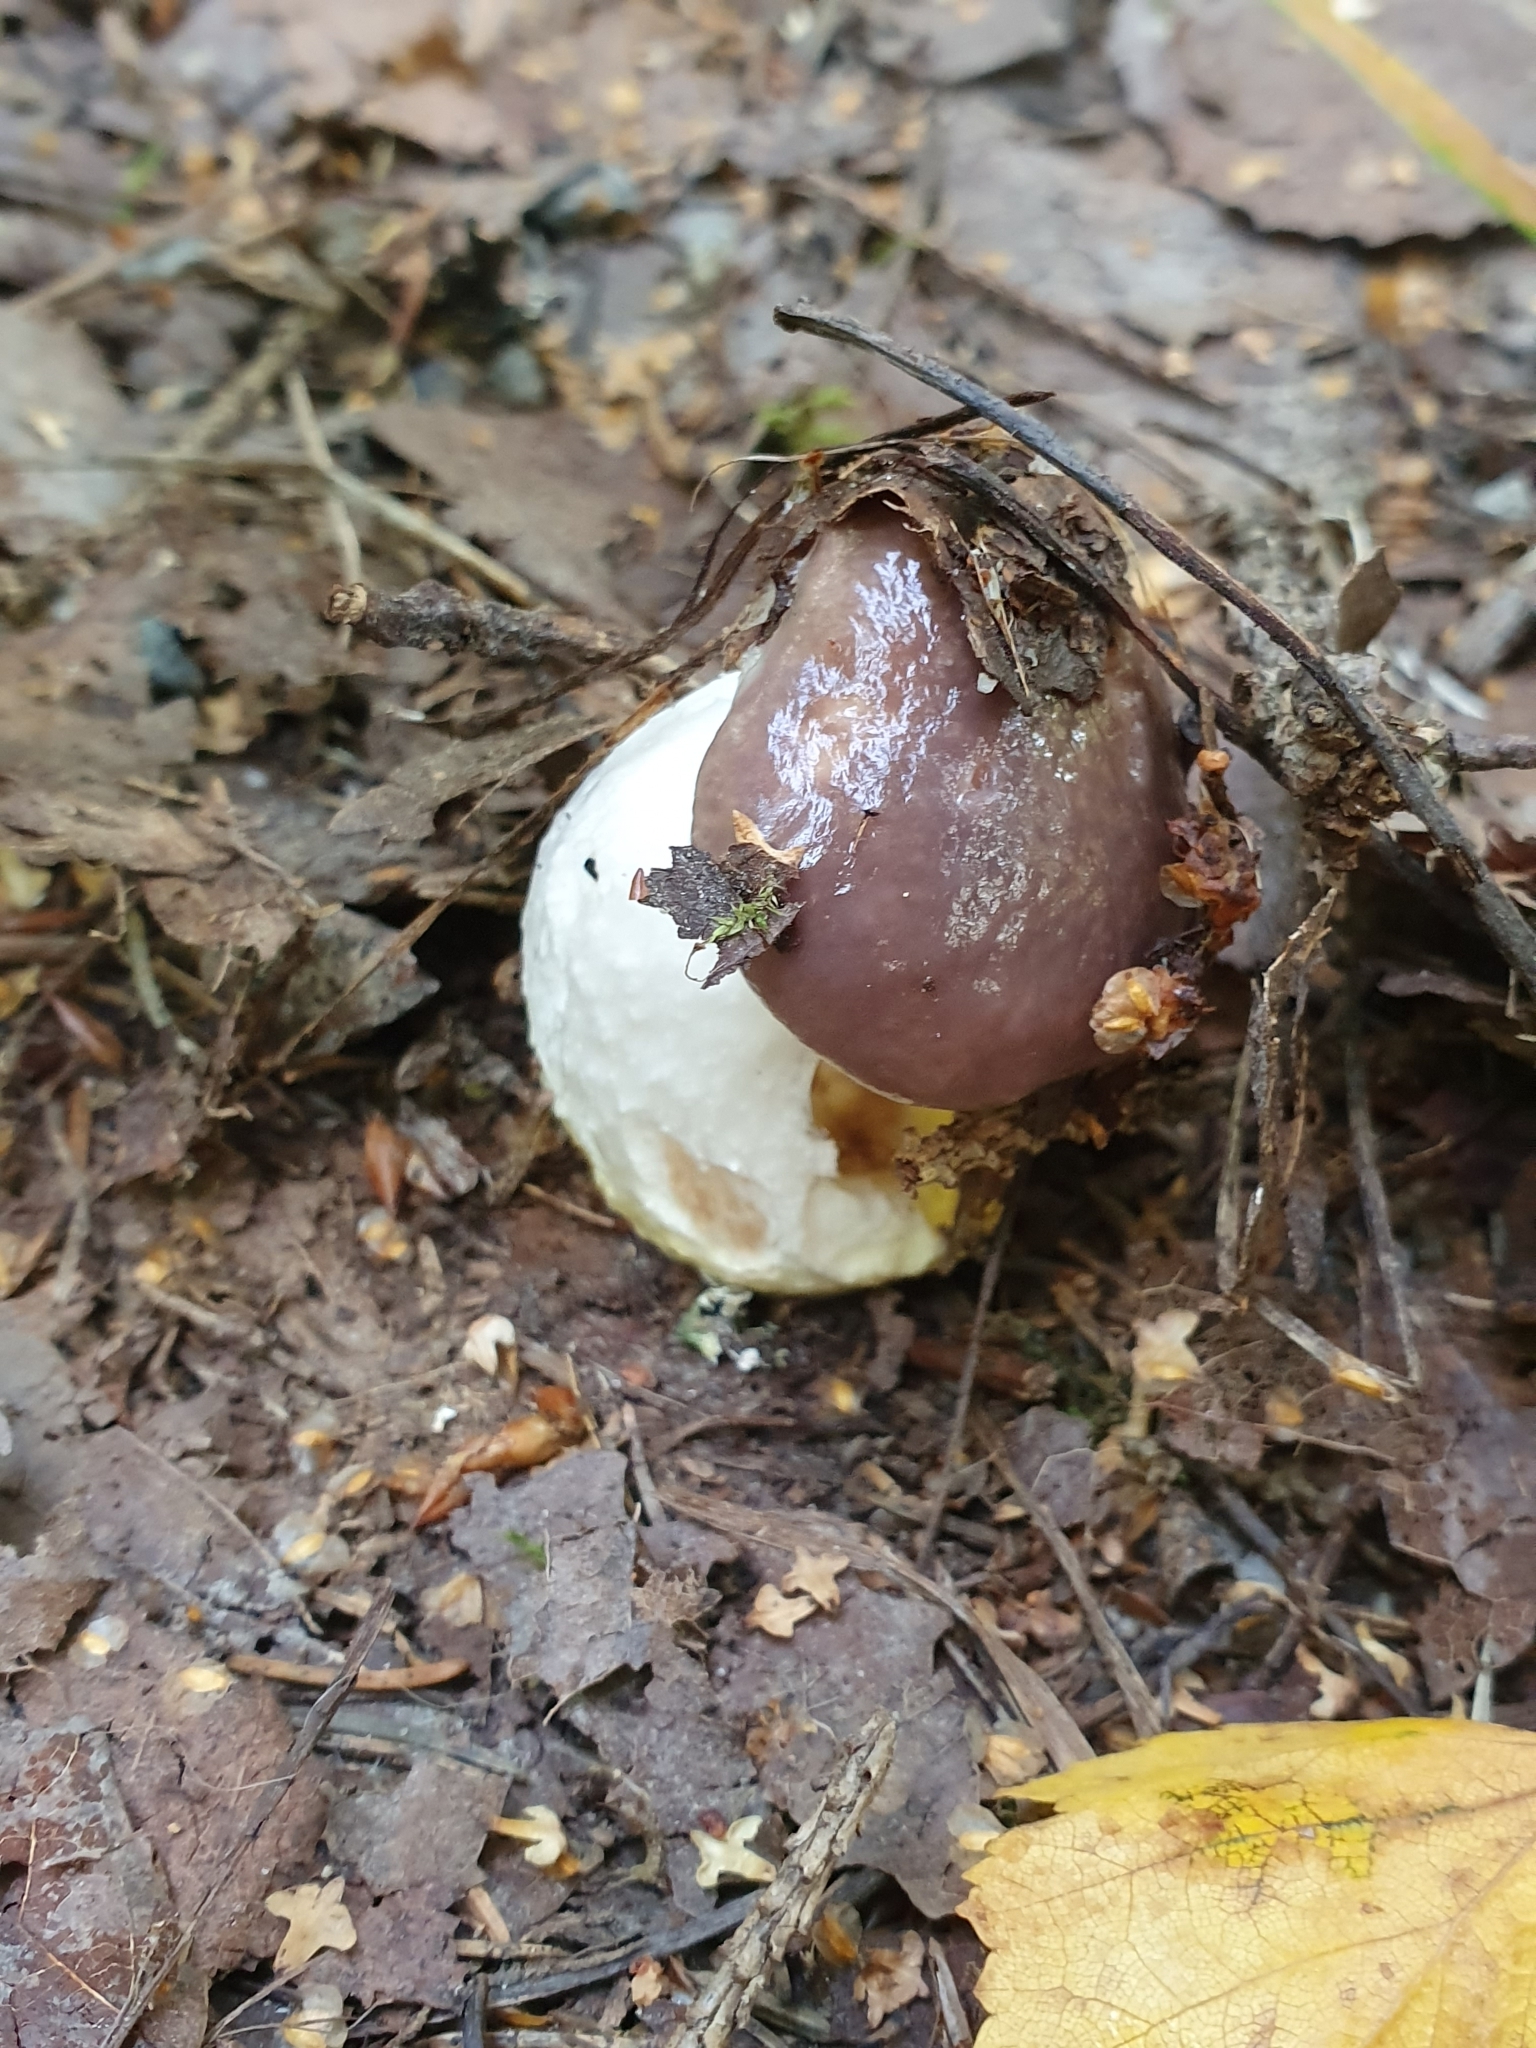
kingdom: Fungi
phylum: Basidiomycota
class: Agaricomycetes
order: Boletales
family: Gomphidiaceae
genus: Gomphidius
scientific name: Gomphidius glutinosus
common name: Slimy spike
